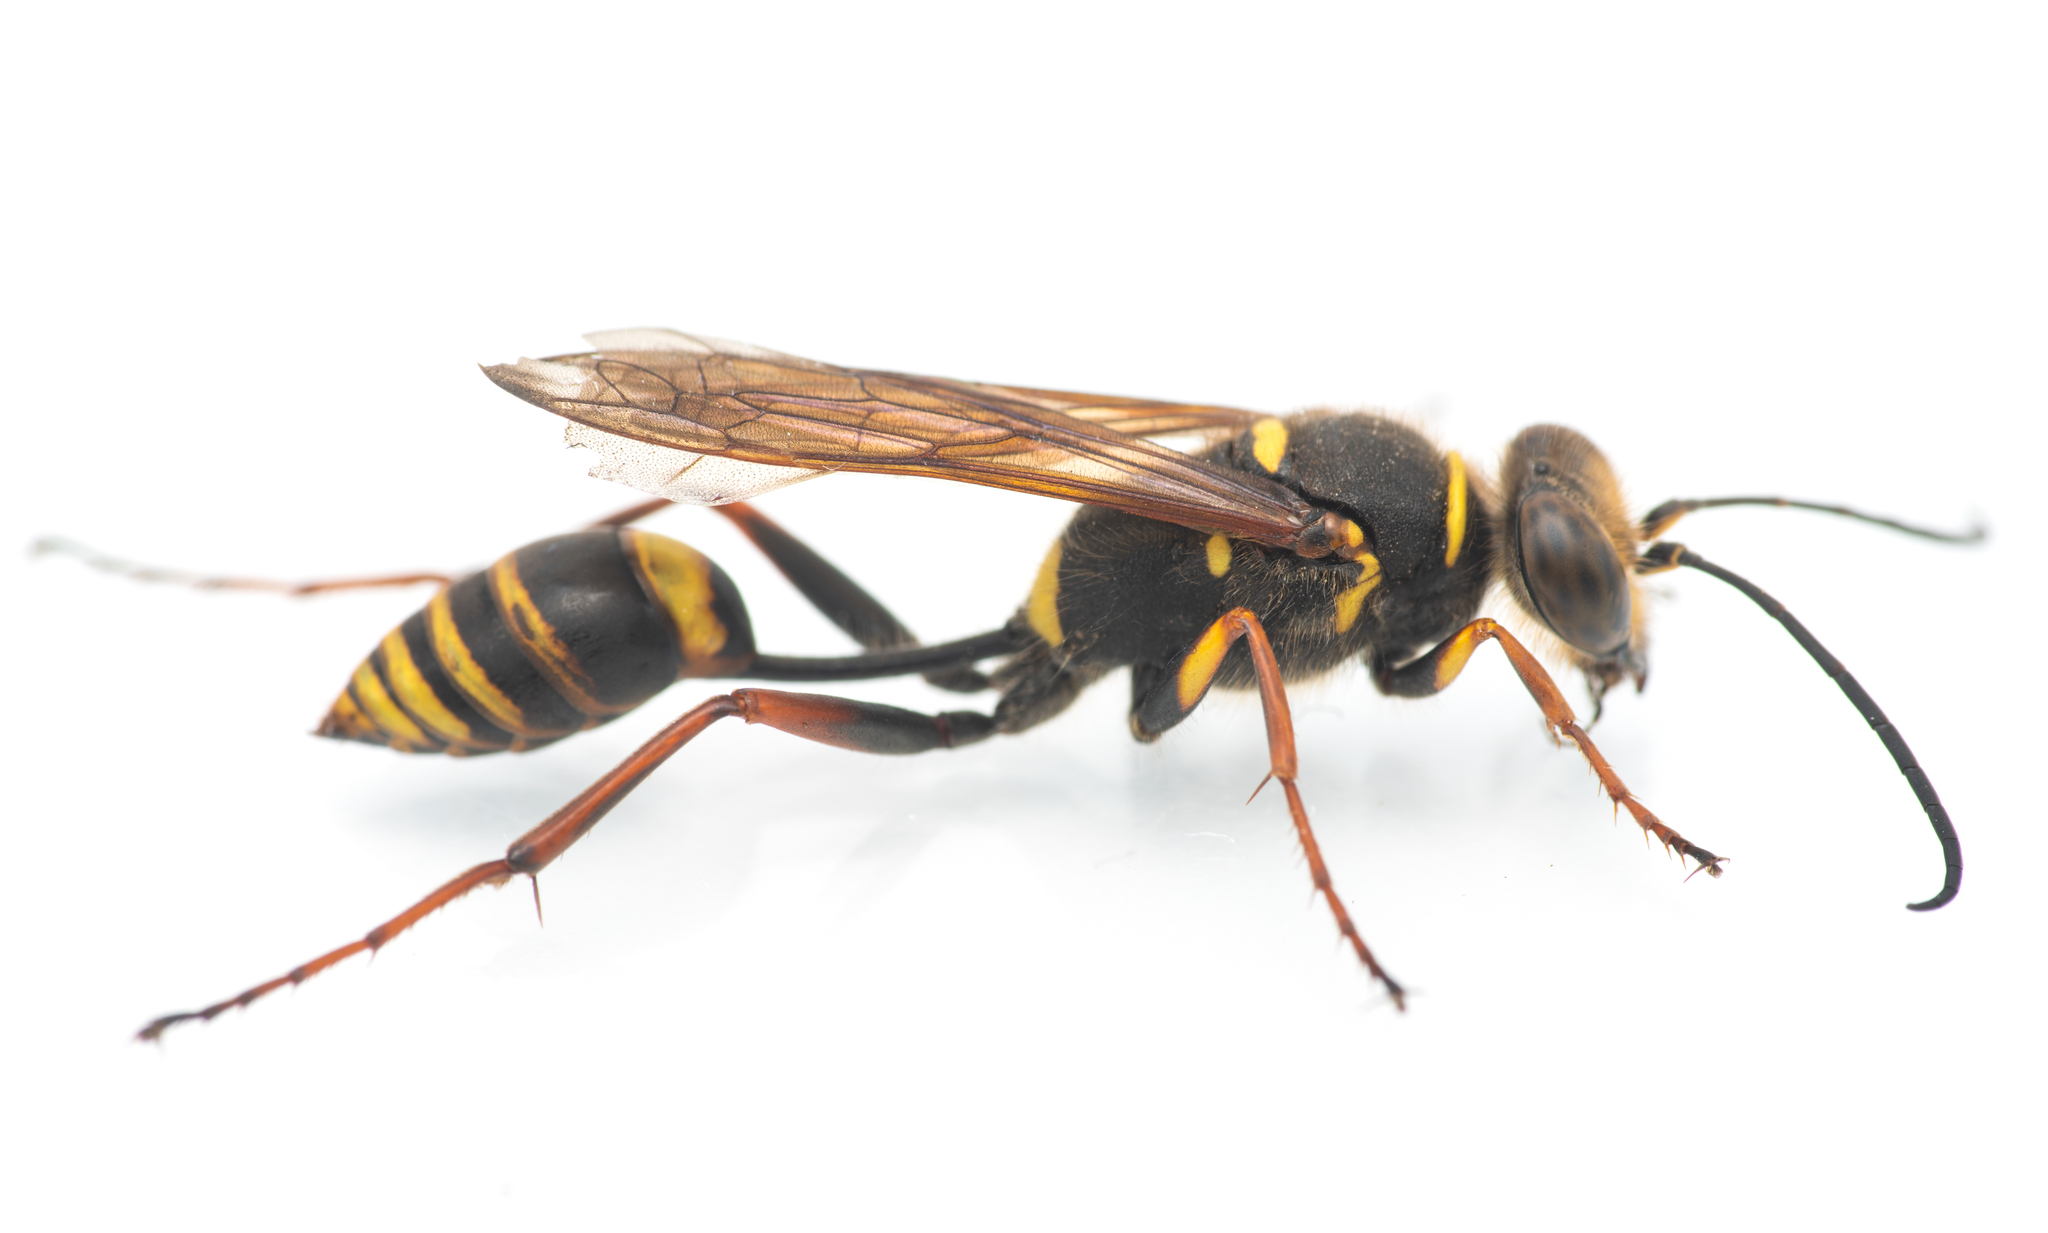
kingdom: Animalia
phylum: Arthropoda
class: Insecta
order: Hymenoptera
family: Sphecidae
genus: Sceliphron
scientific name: Sceliphron curvatum
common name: Pèlopèe
